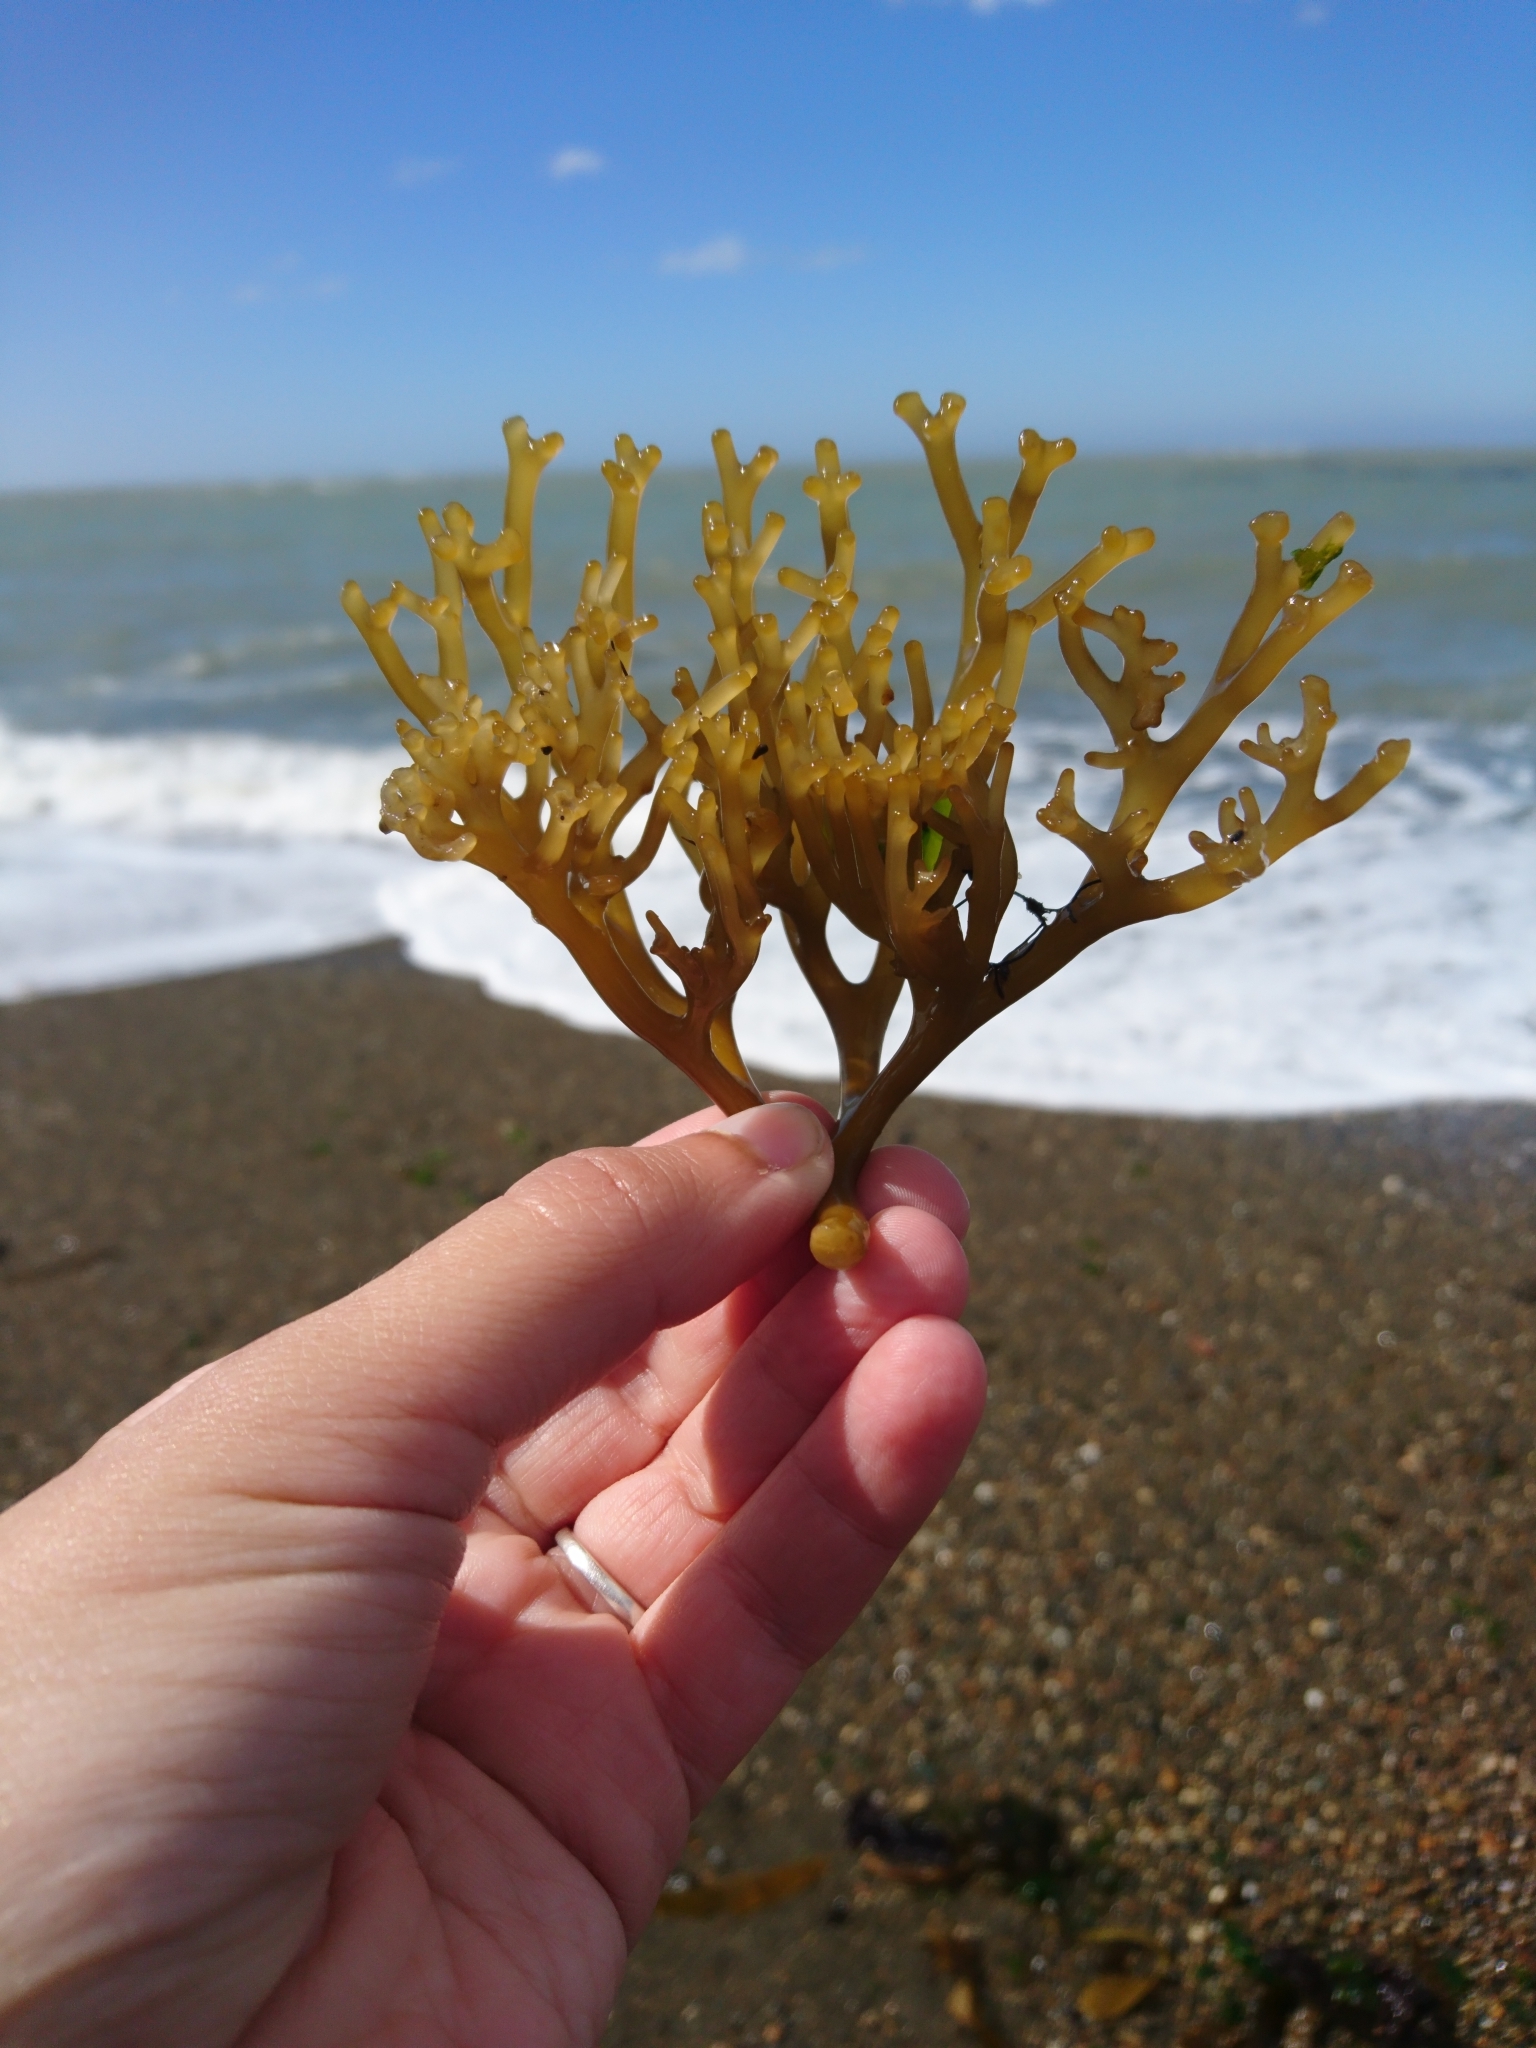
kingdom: Chromista
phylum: Ochrophyta
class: Phaeophyceae
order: Laminariales
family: Laminariaceae
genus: Macrocystis
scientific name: Macrocystis pyrifera
